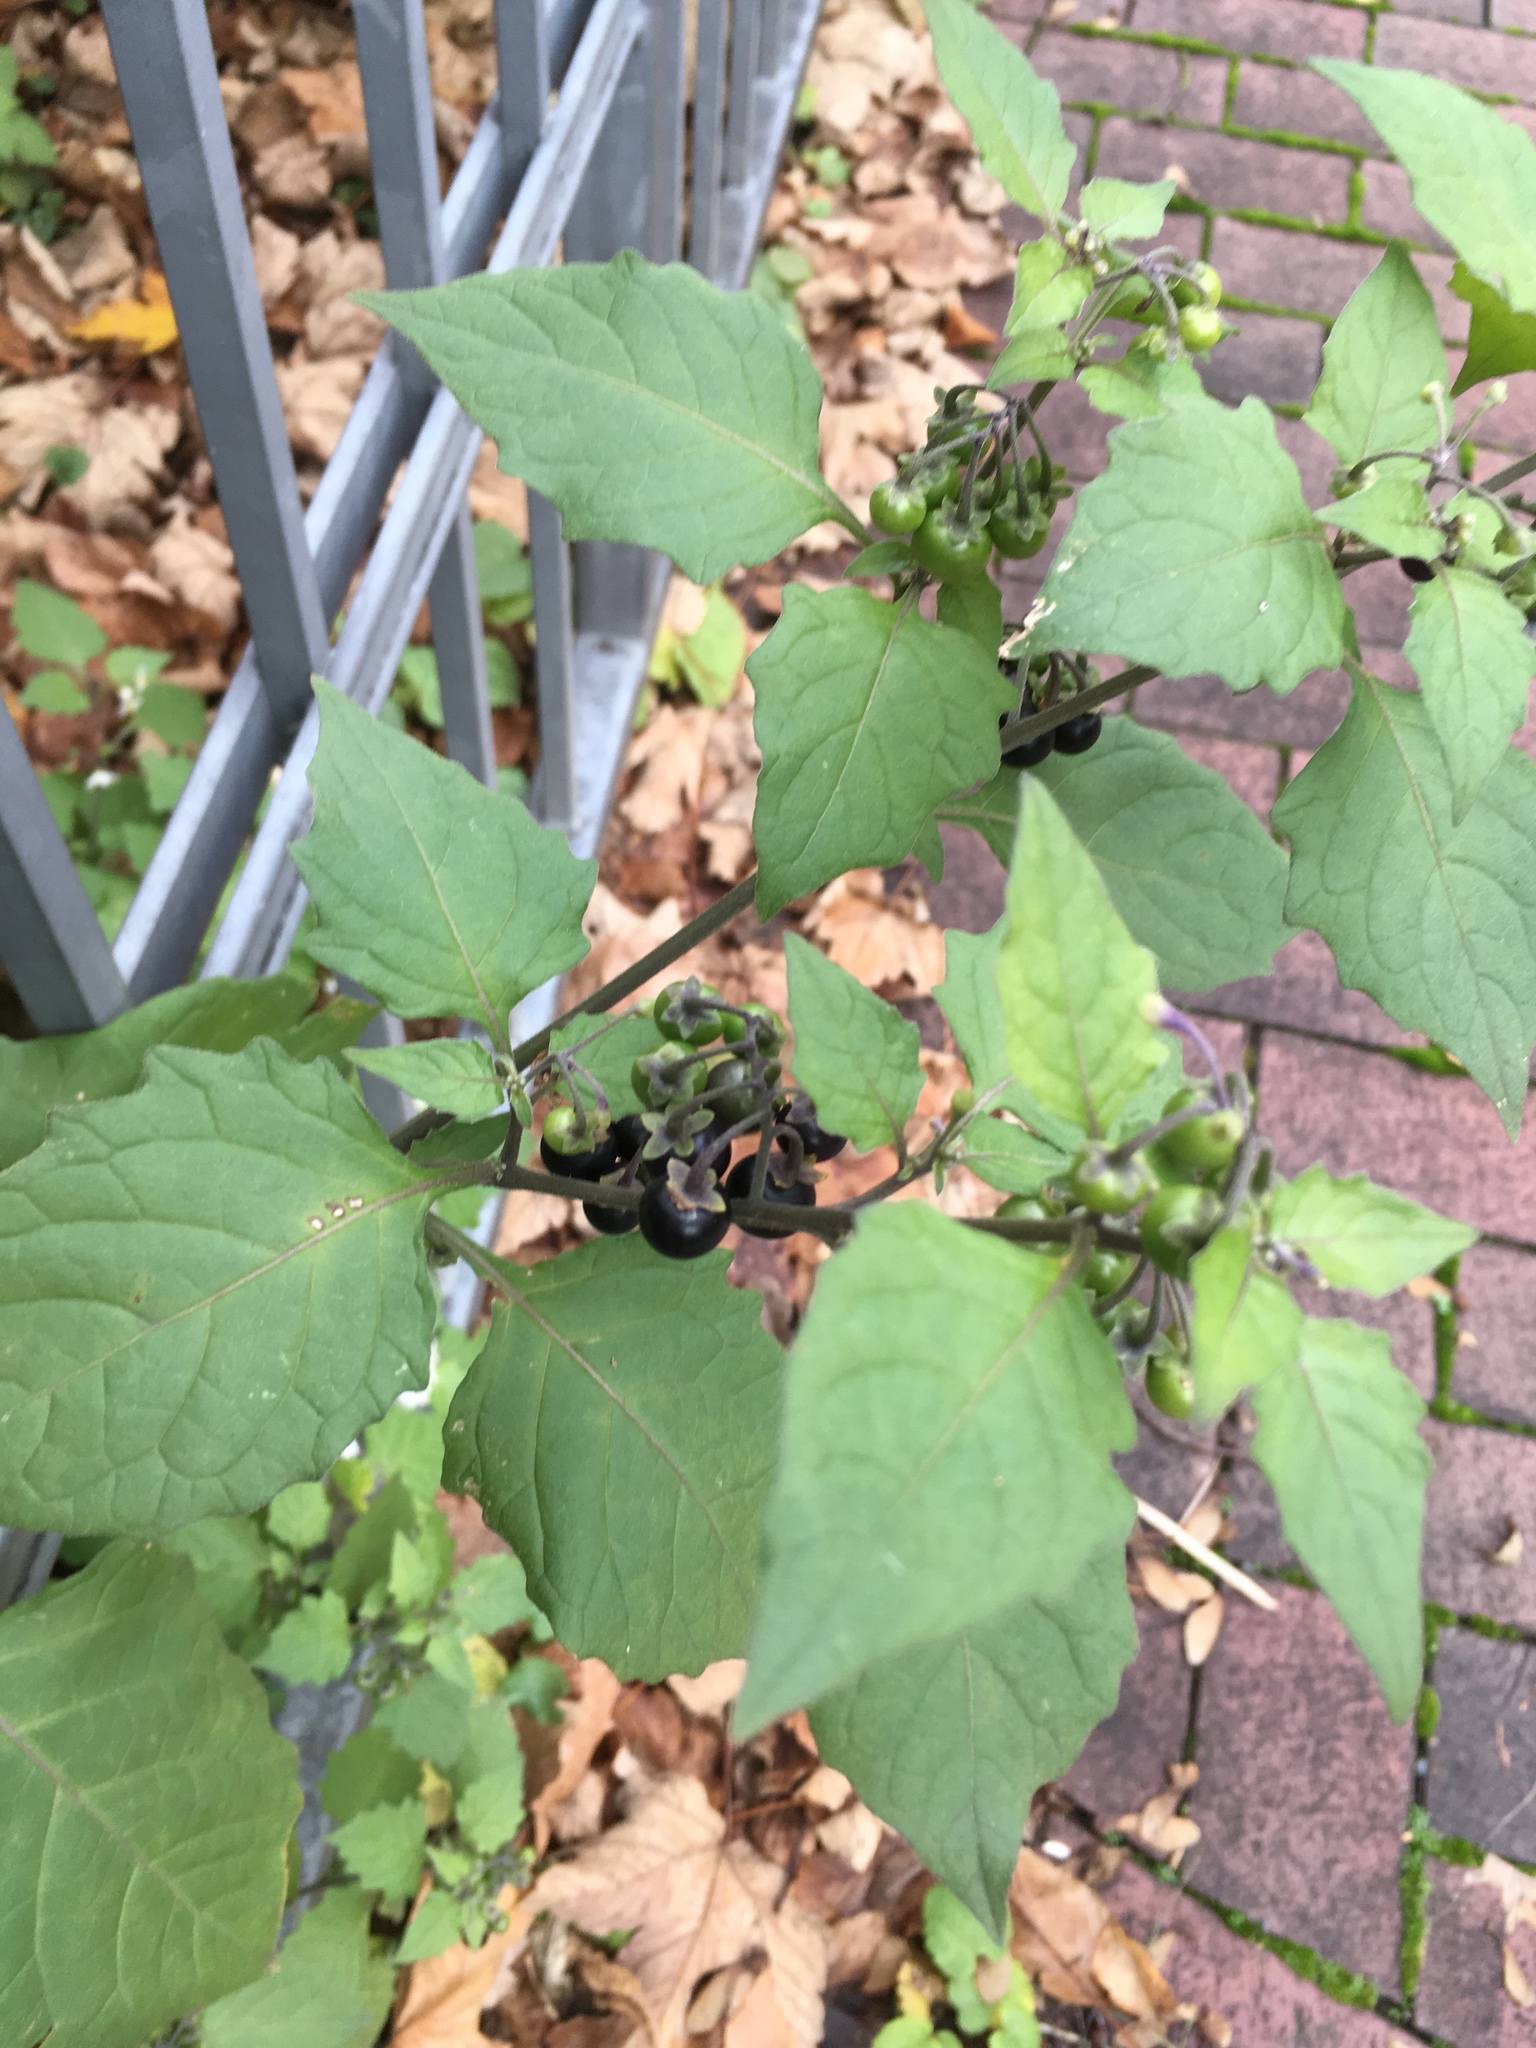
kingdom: Plantae
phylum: Tracheophyta
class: Magnoliopsida
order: Solanales
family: Solanaceae
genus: Solanum
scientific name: Solanum nigrum
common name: Black nightshade
